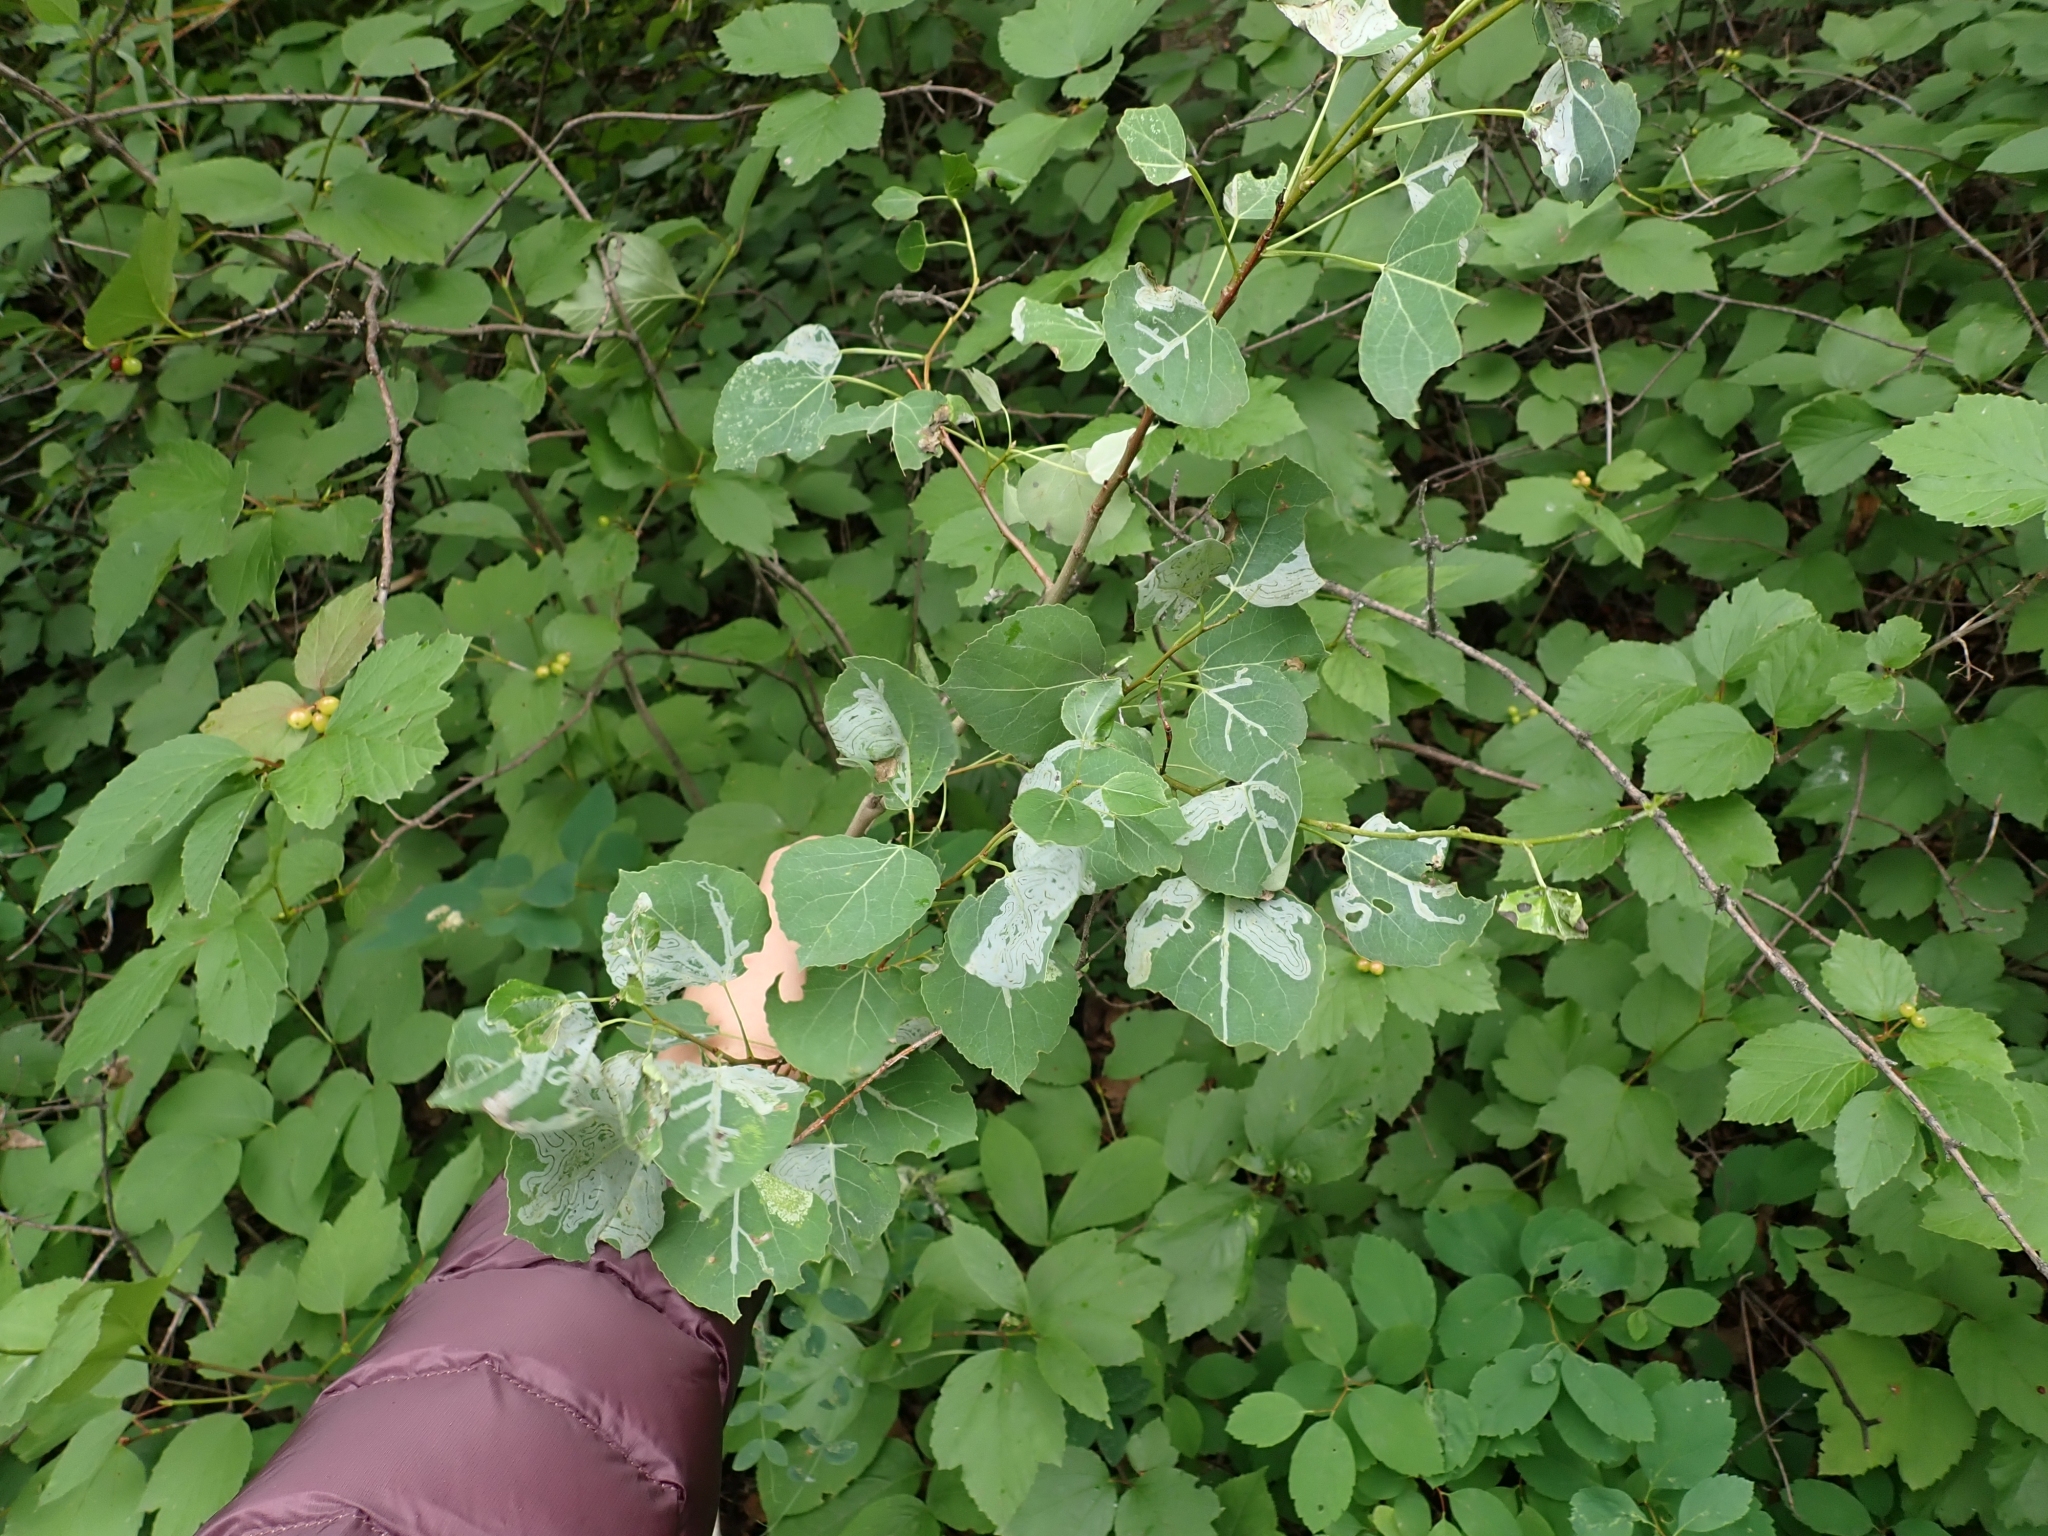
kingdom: Plantae
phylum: Tracheophyta
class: Magnoliopsida
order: Malpighiales
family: Salicaceae
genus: Populus
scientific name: Populus tremuloides
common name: Quaking aspen
